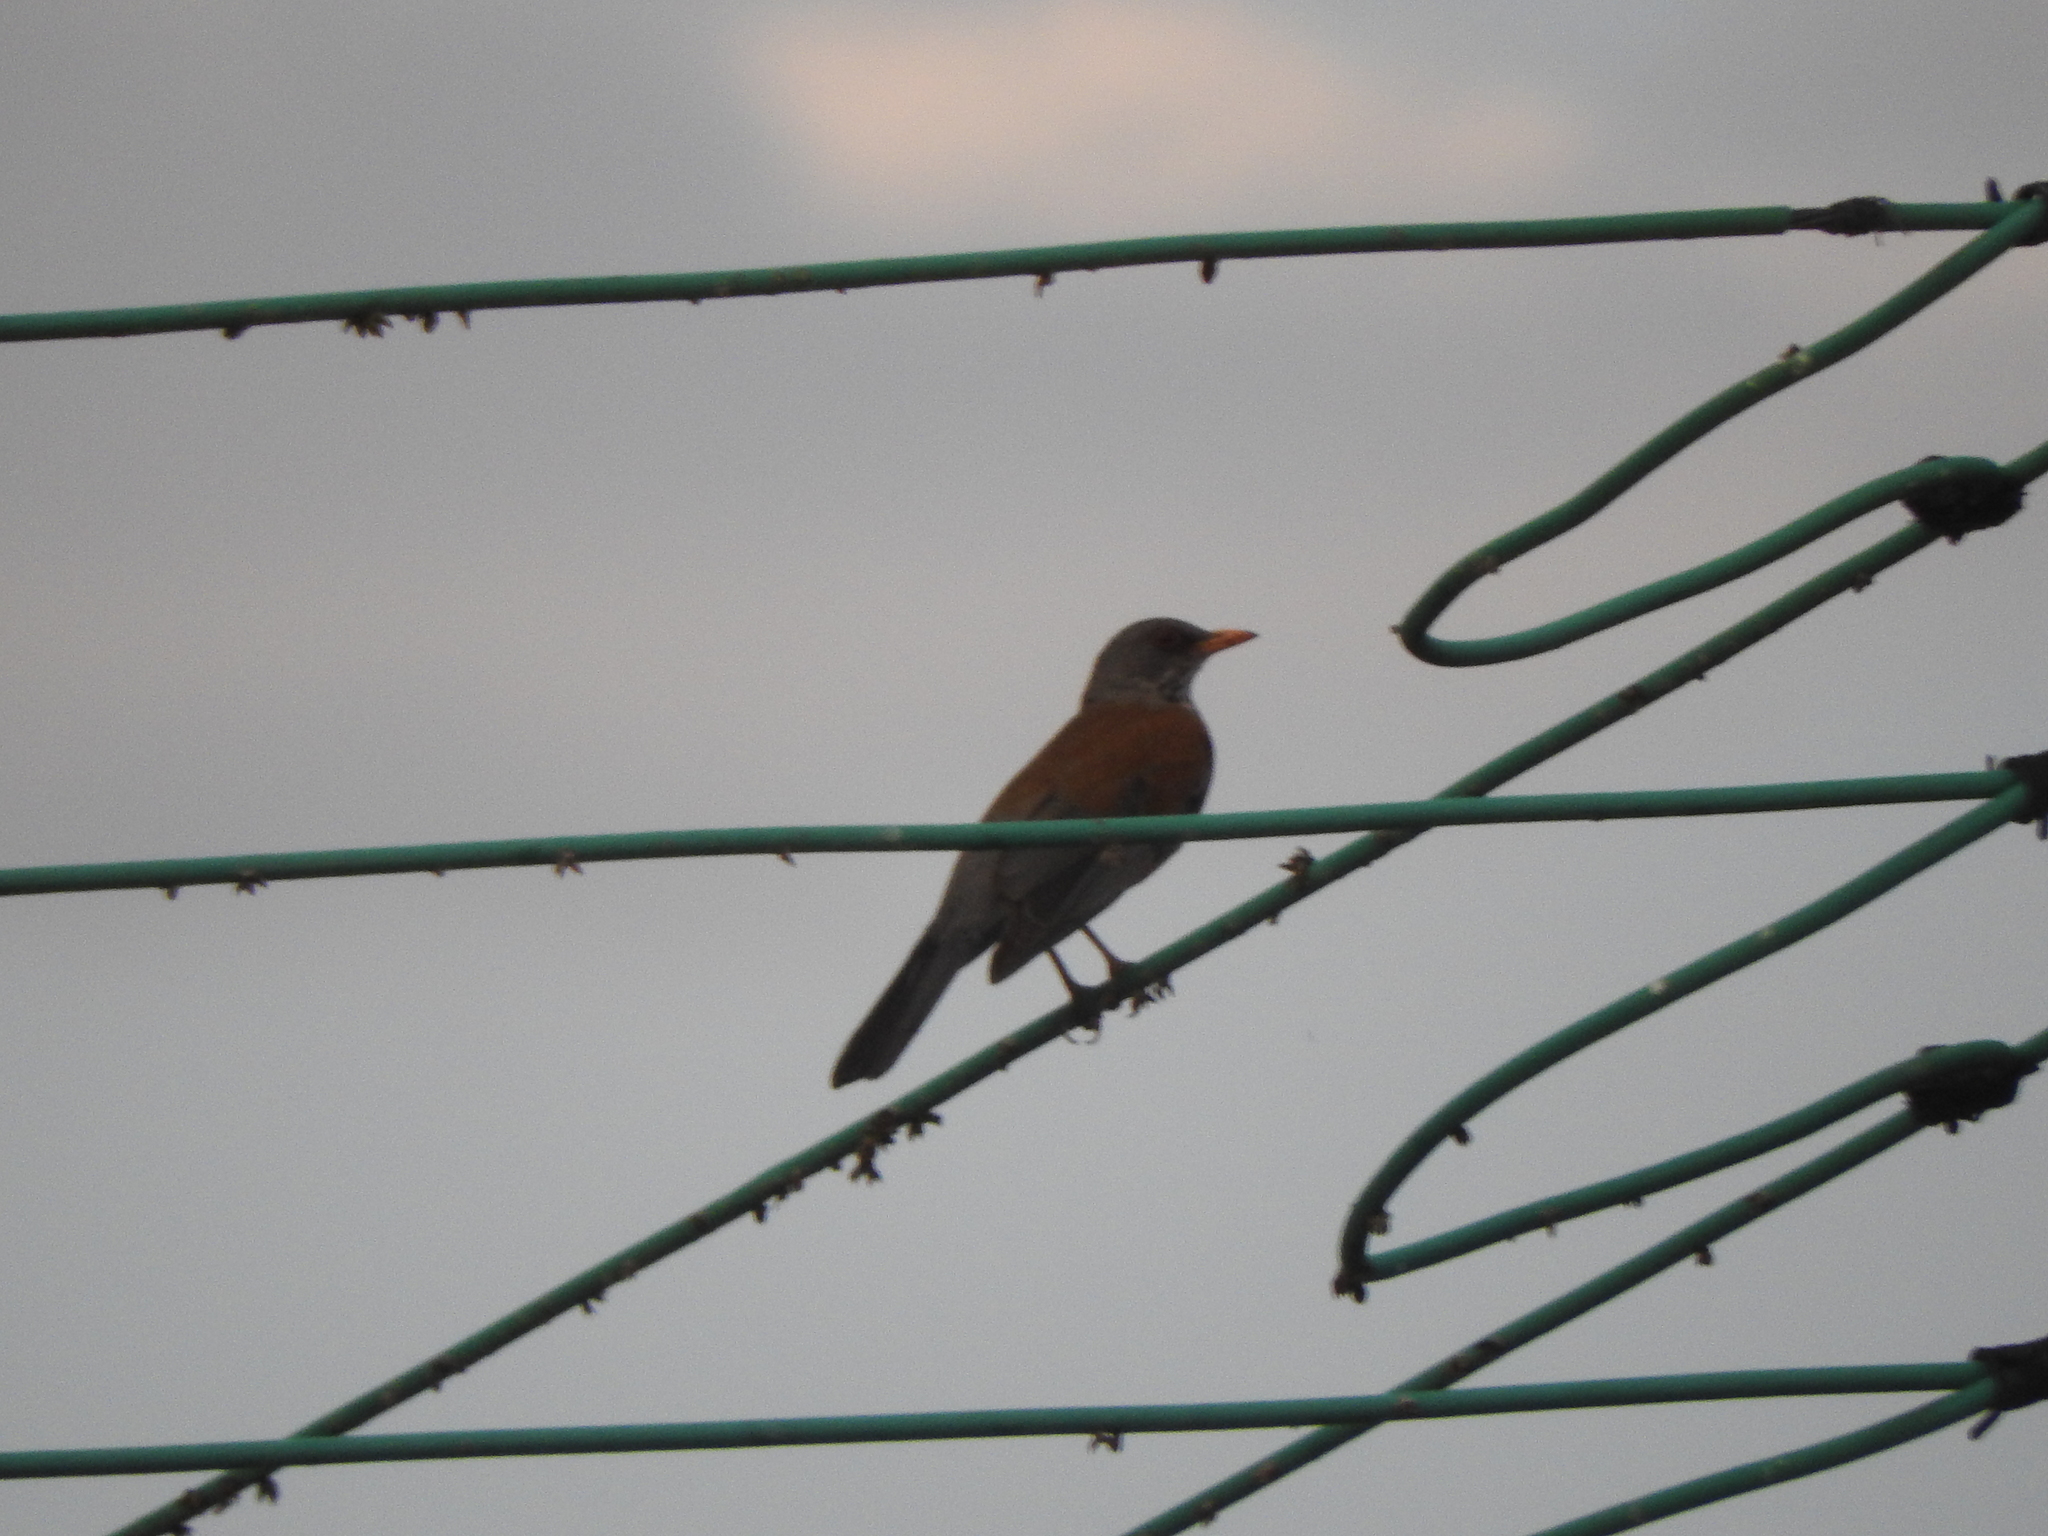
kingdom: Animalia
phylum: Chordata
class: Aves
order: Passeriformes
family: Turdidae
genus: Turdus
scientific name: Turdus rufopalliatus
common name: Rufous-backed robin
